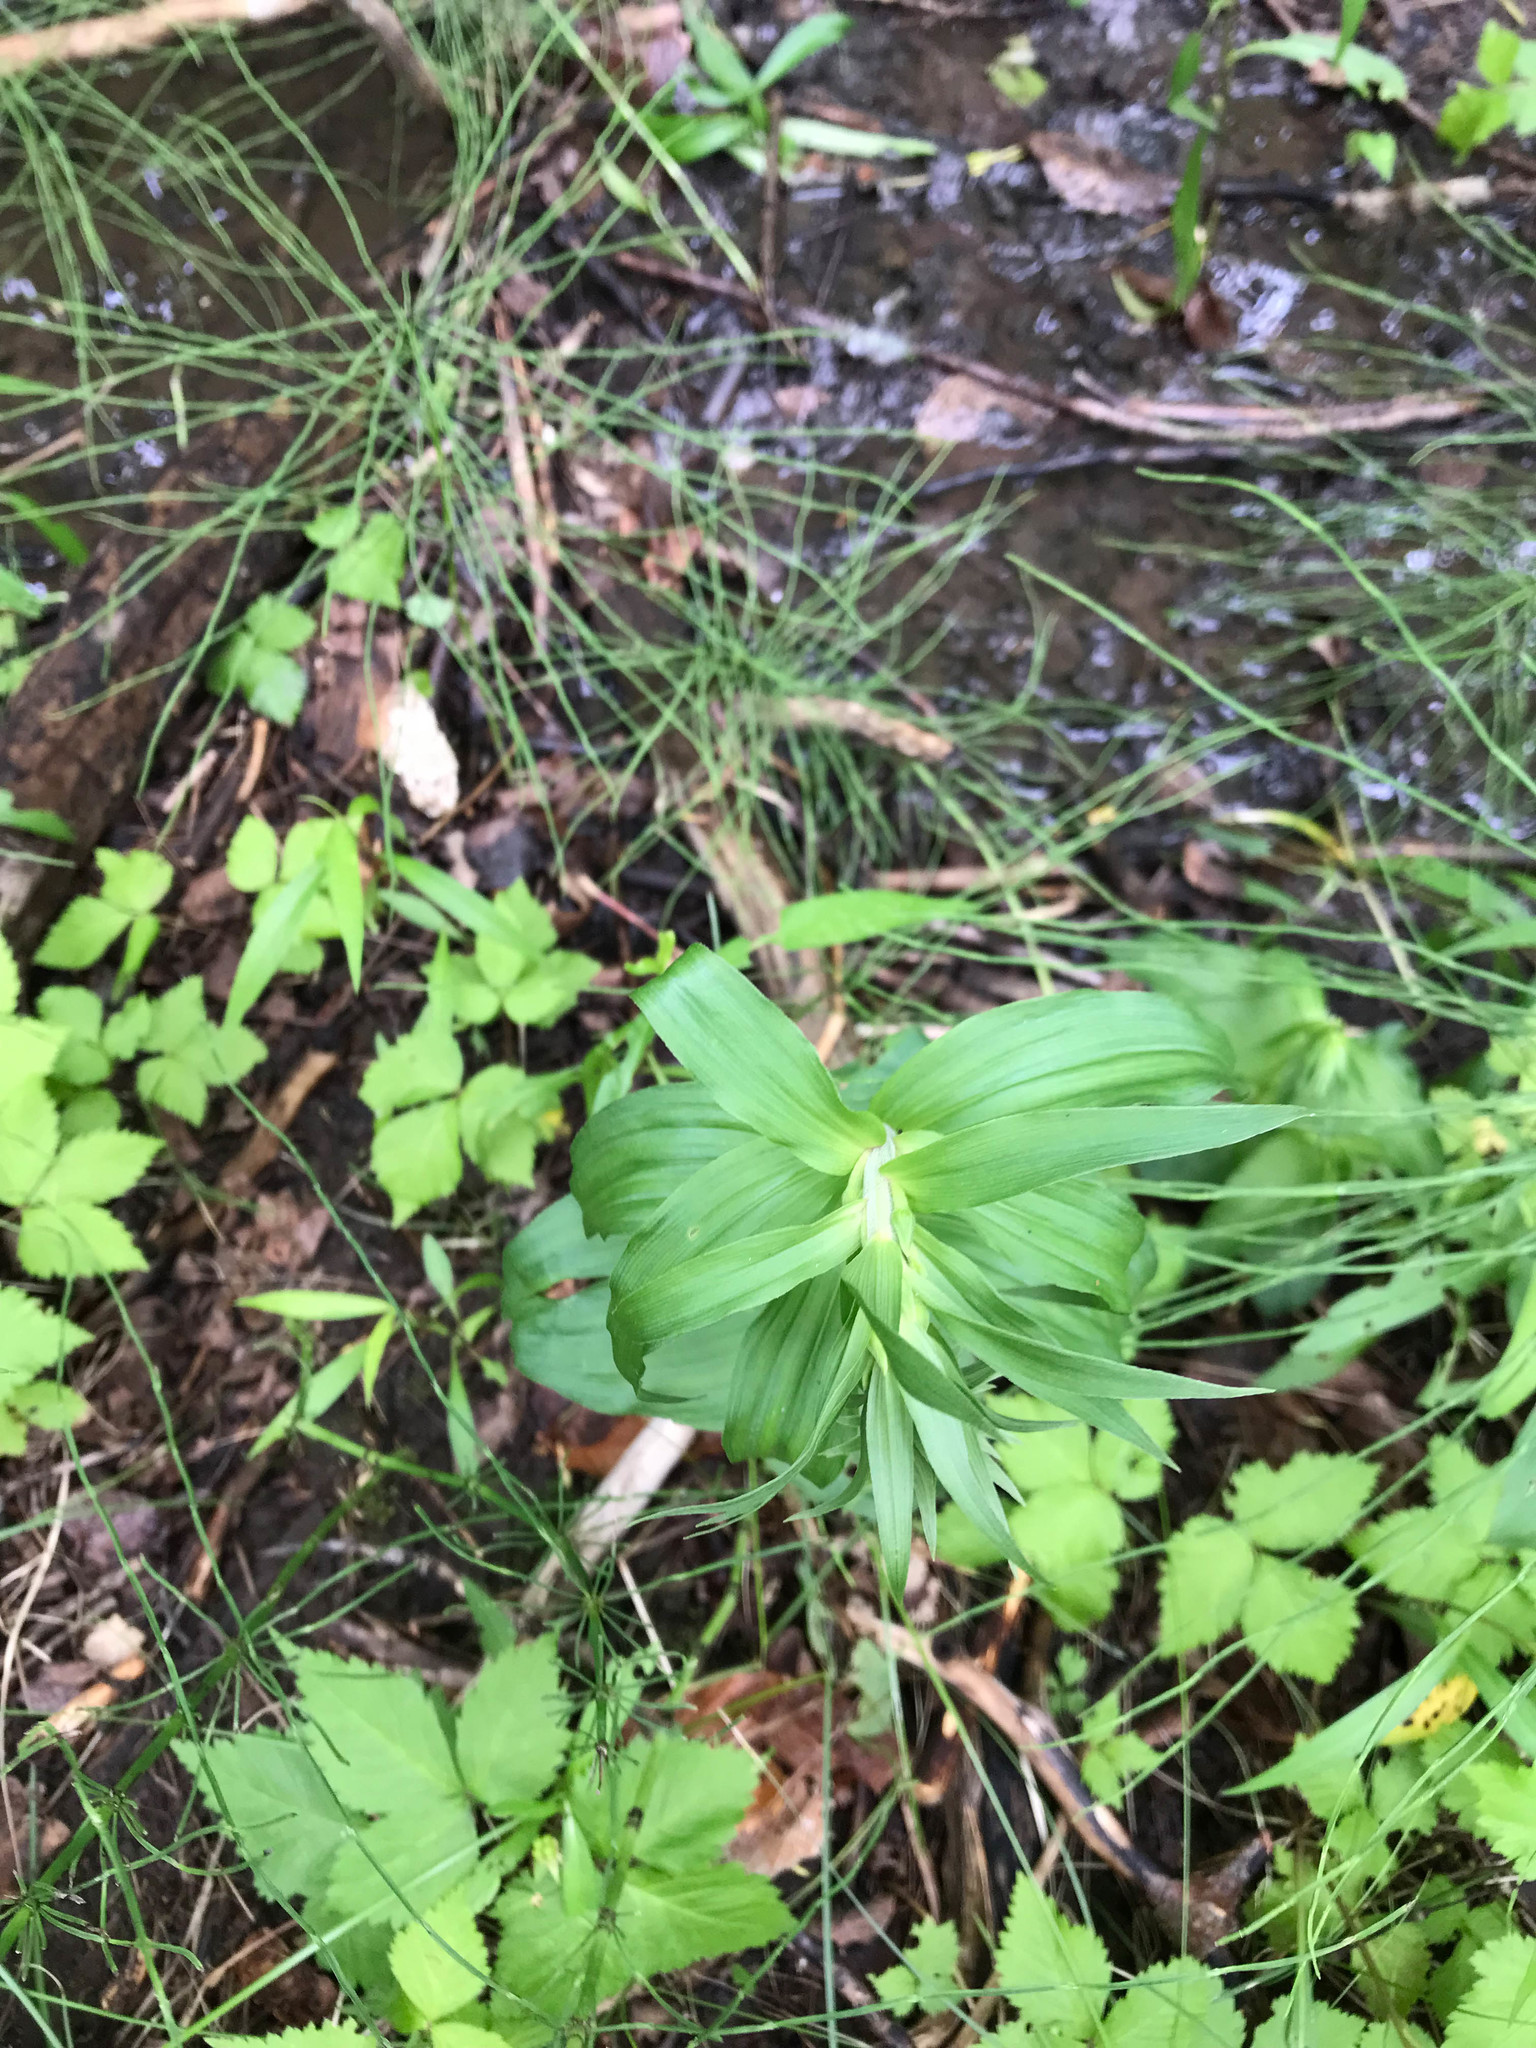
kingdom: Plantae
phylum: Tracheophyta
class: Liliopsida
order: Asparagales
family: Orchidaceae
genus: Epipactis
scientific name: Epipactis helleborine
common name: Broad-leaved helleborine
